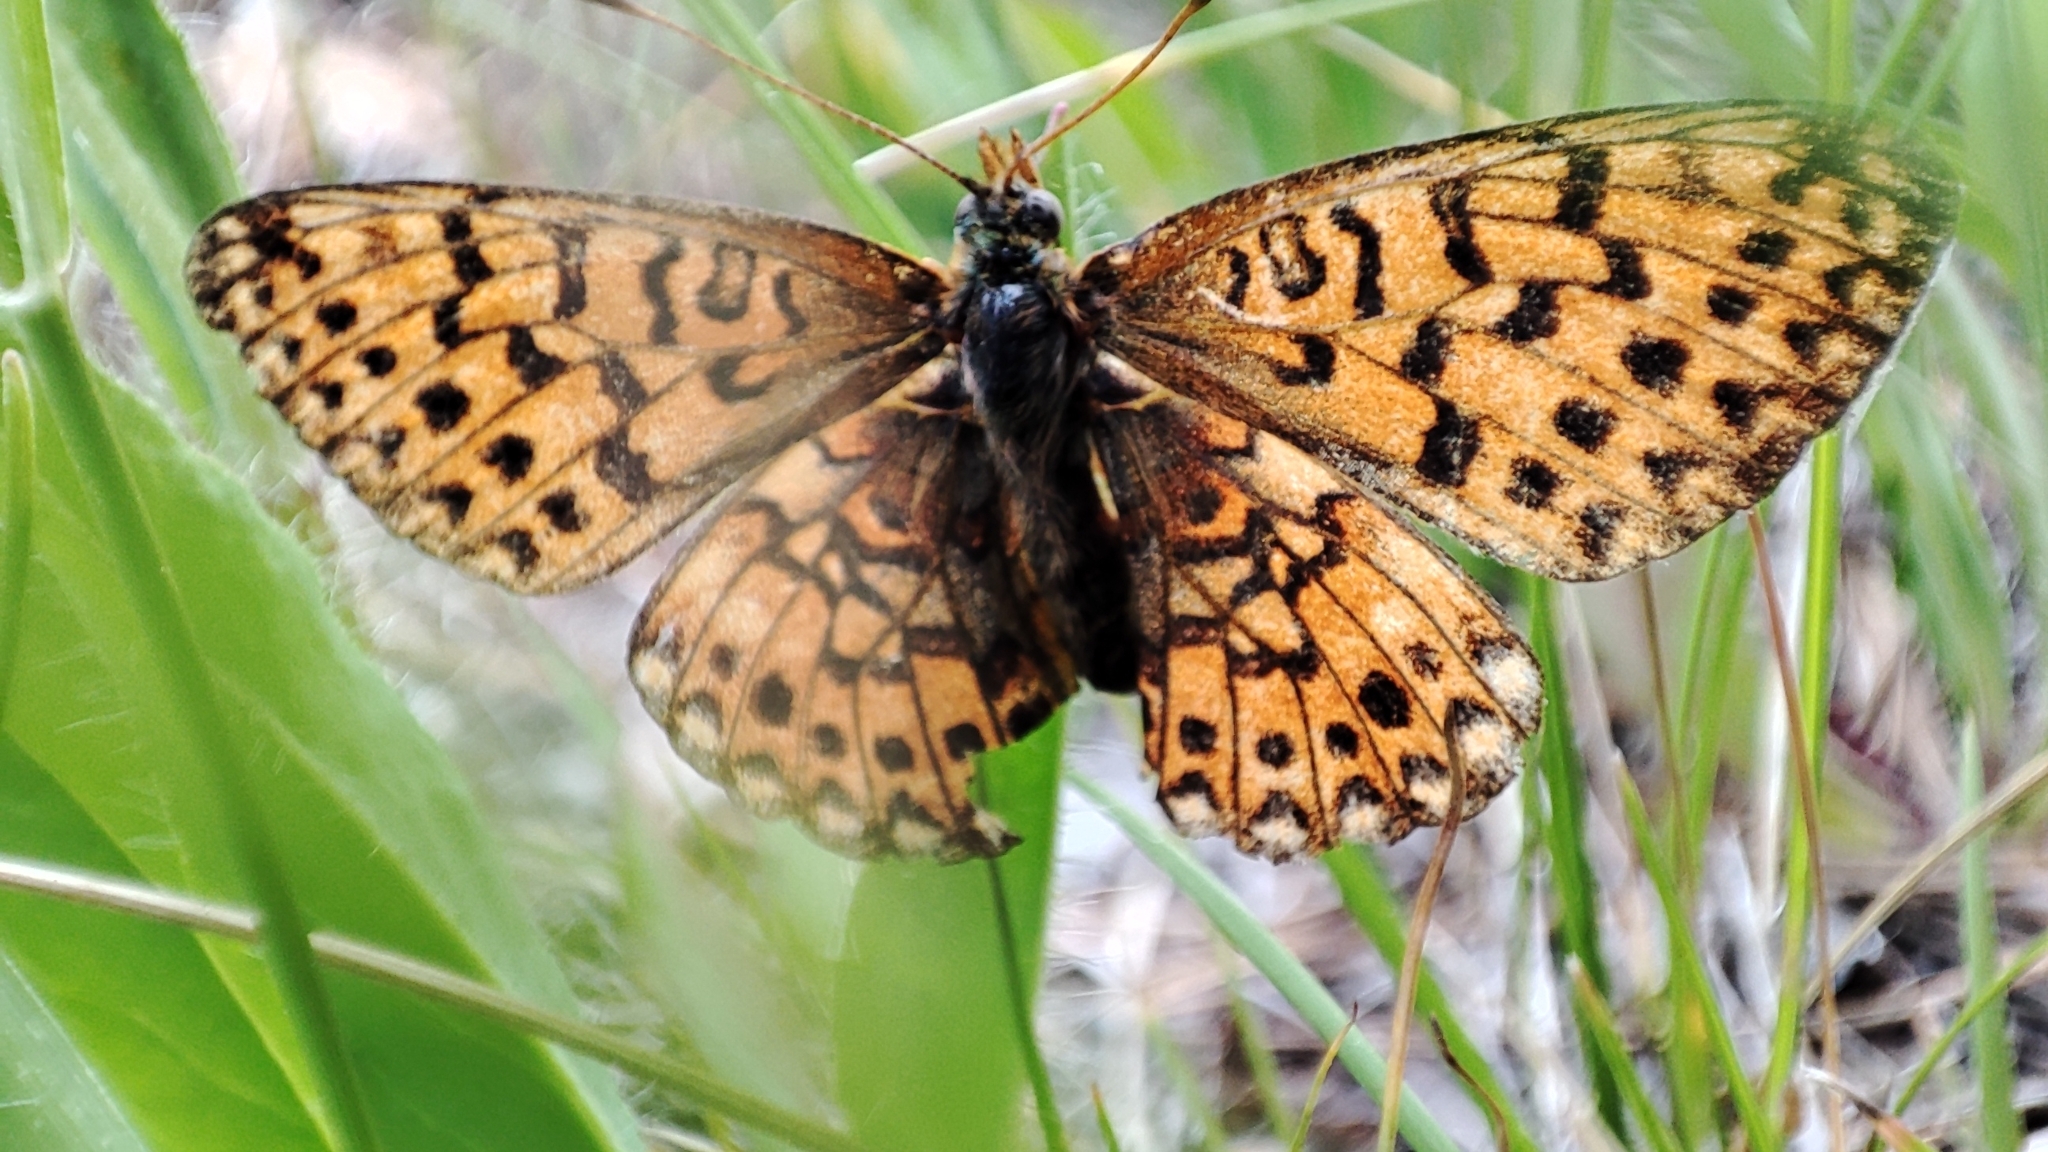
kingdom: Animalia
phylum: Arthropoda
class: Insecta
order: Lepidoptera
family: Nymphalidae
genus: Clossiana
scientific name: Clossiana euphrosyne
